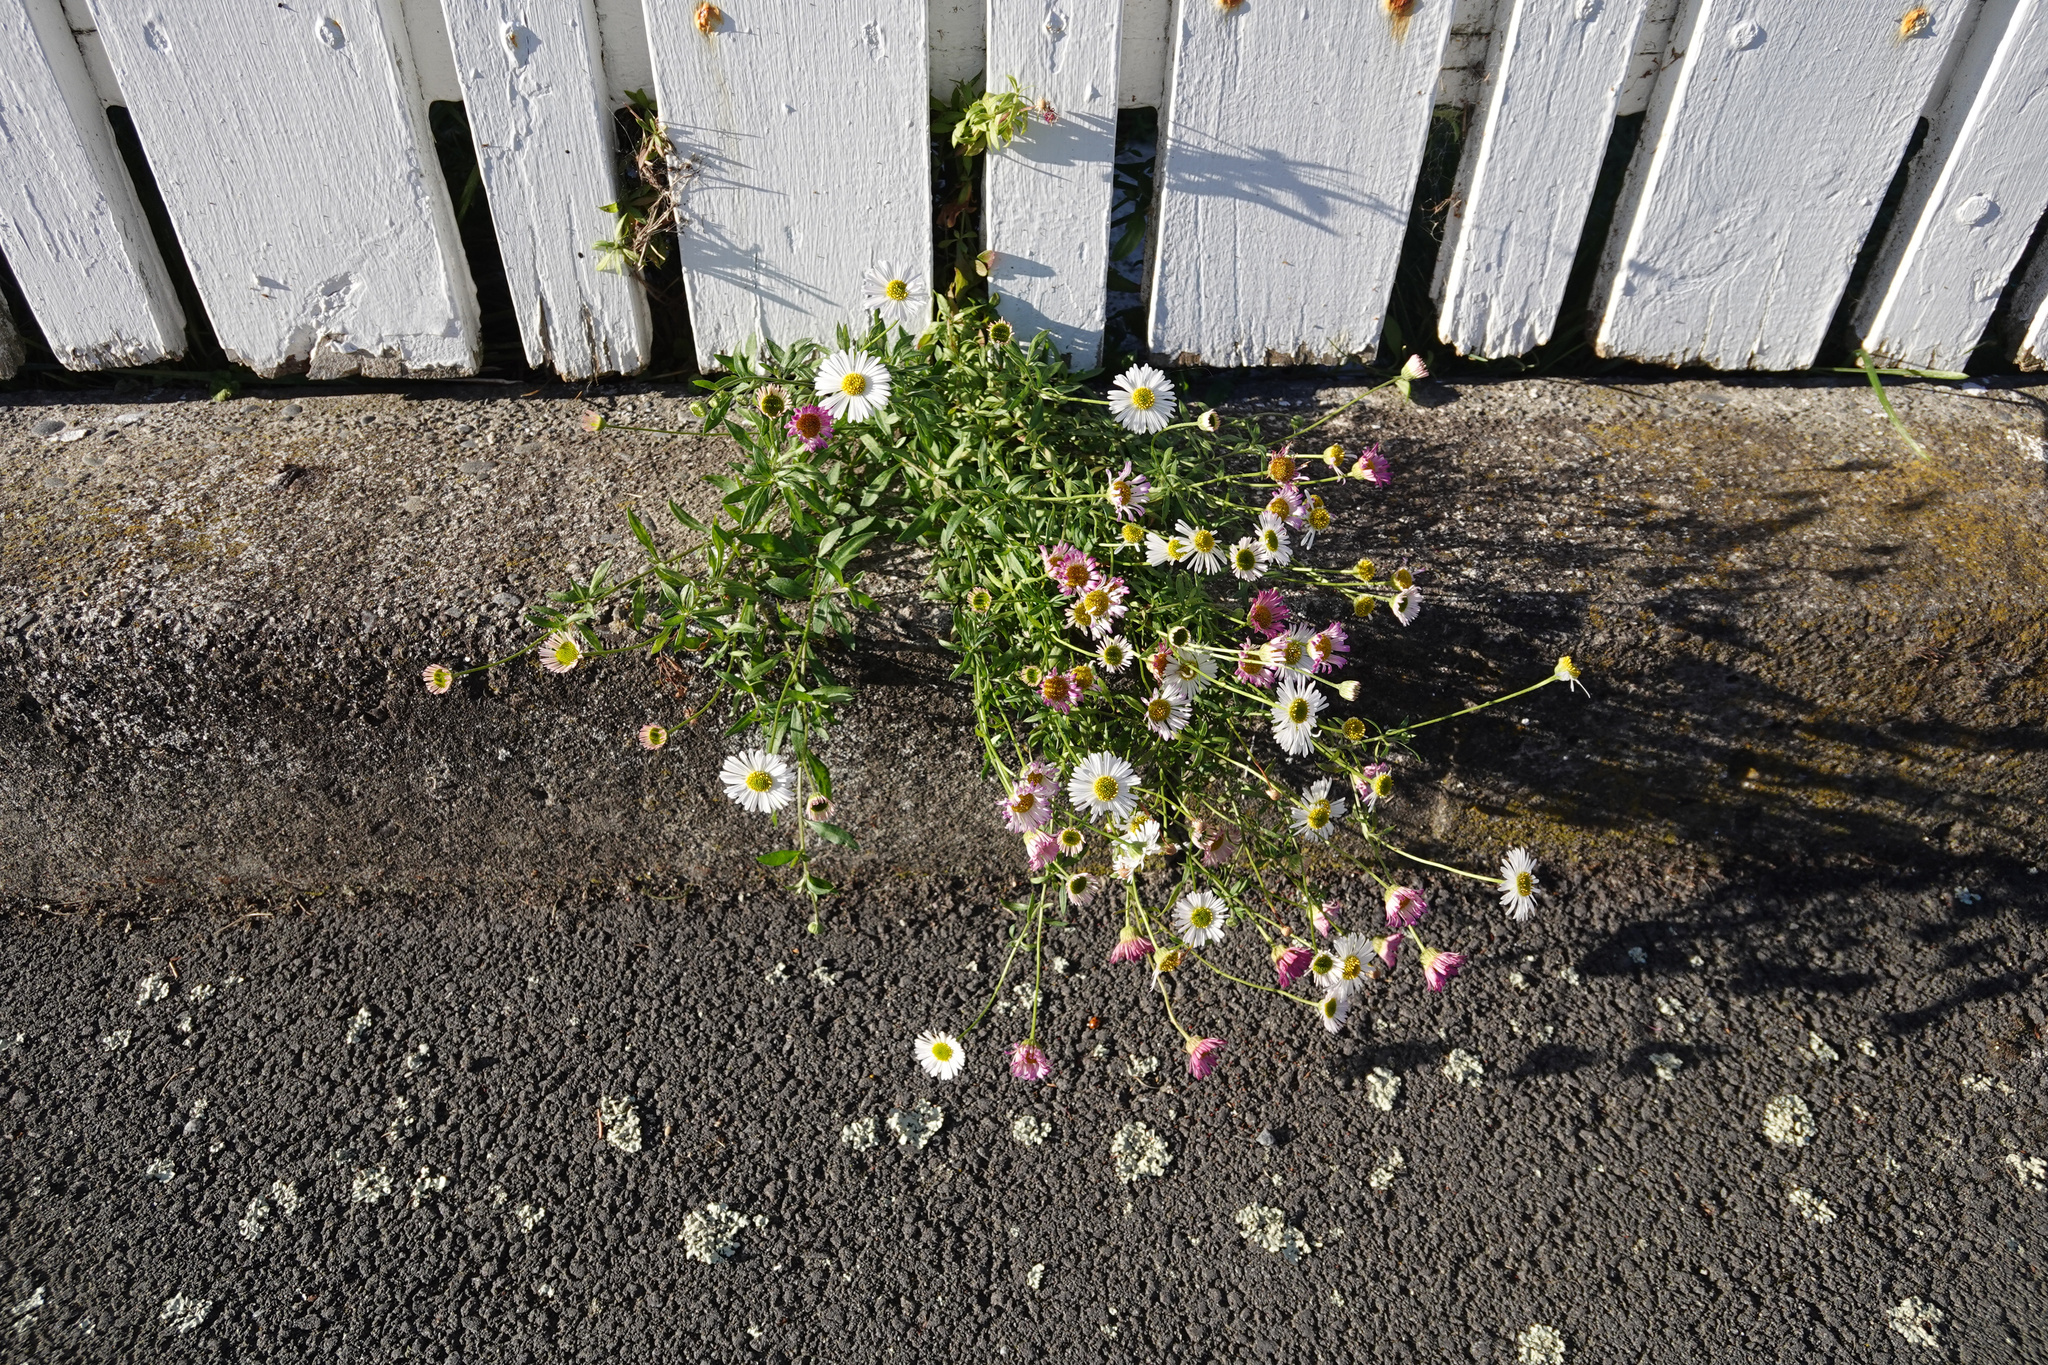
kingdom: Plantae
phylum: Tracheophyta
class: Magnoliopsida
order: Asterales
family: Asteraceae
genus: Erigeron
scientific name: Erigeron karvinskianus
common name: Mexican fleabane
